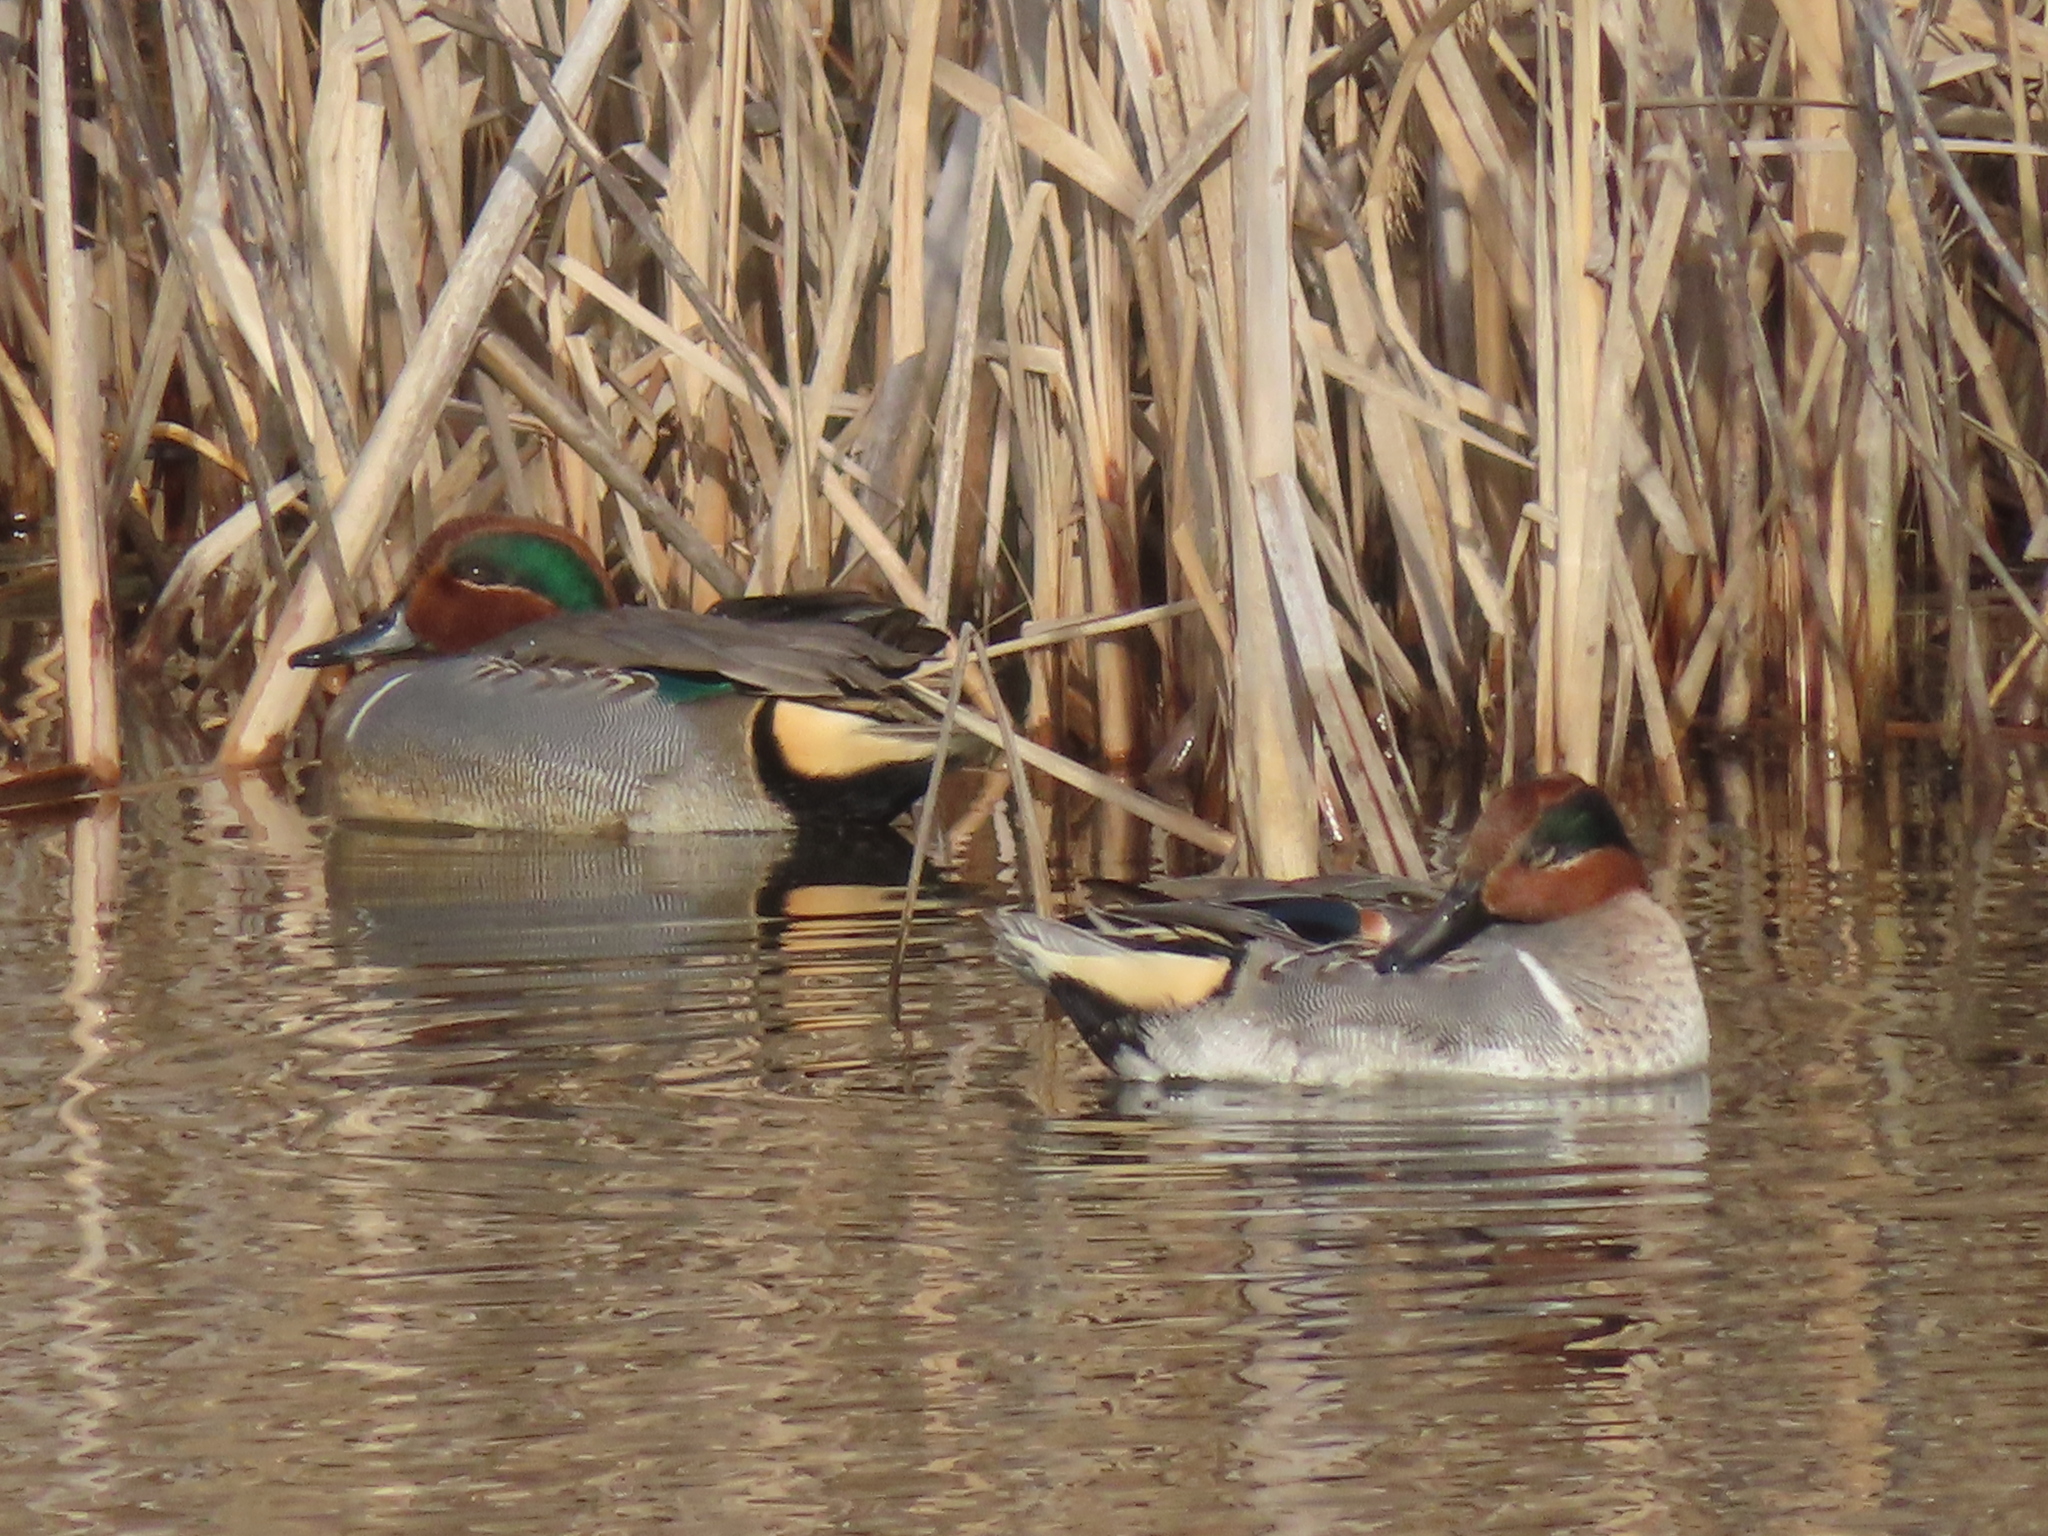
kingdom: Animalia
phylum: Chordata
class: Aves
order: Anseriformes
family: Anatidae
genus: Anas
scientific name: Anas crecca
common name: Eurasian teal
